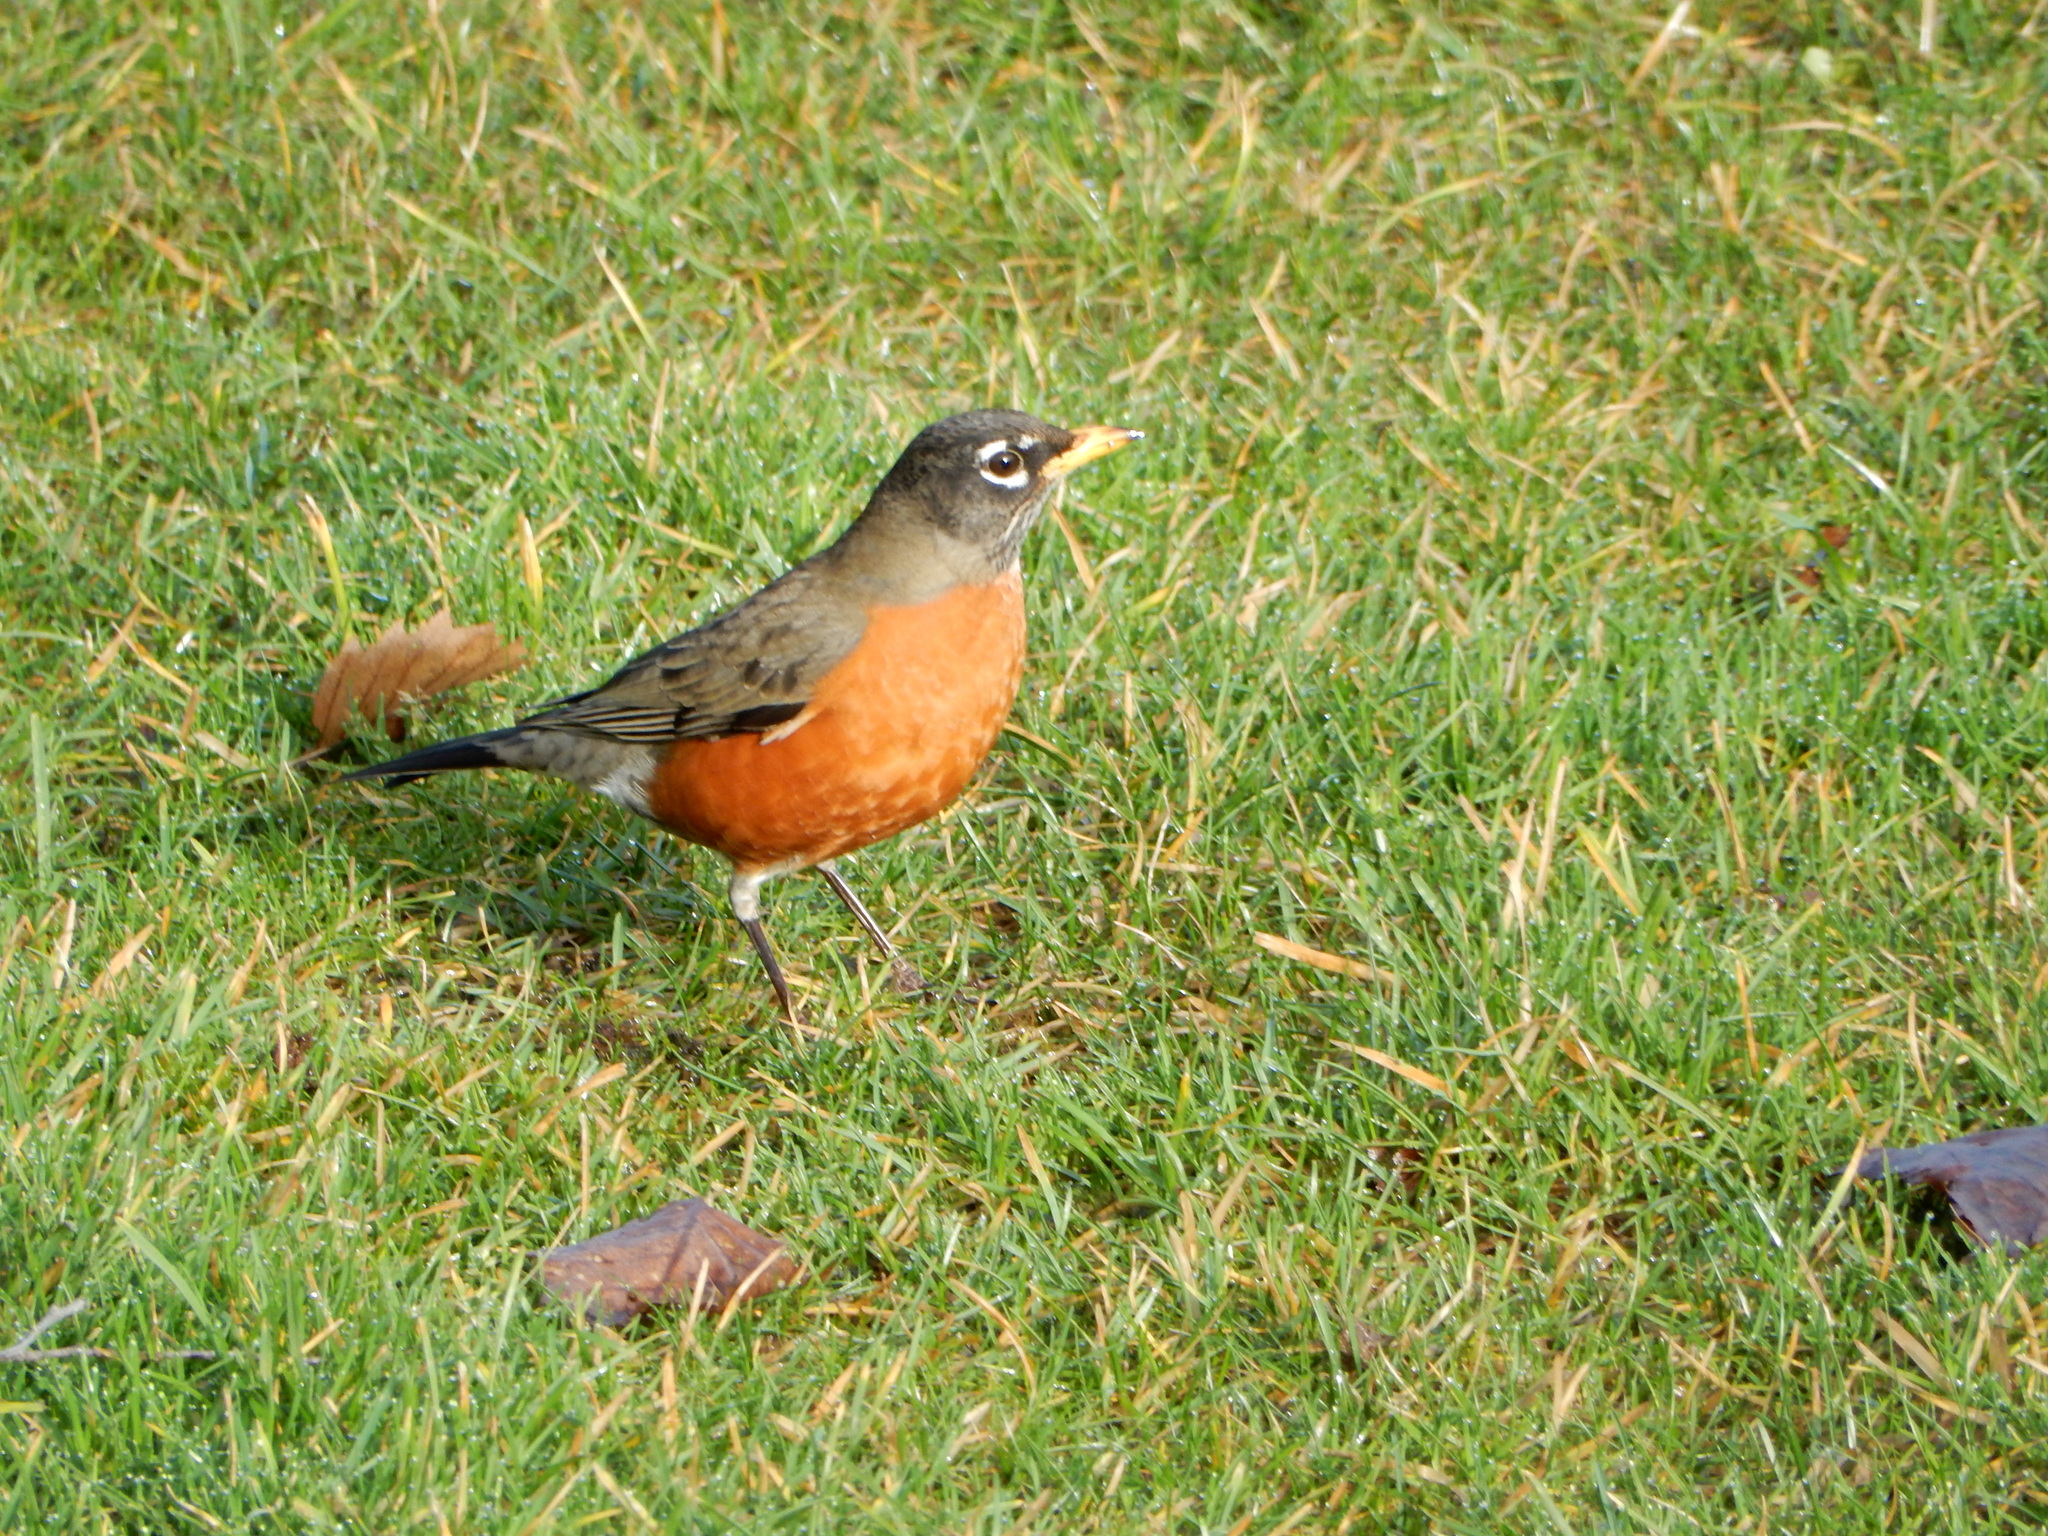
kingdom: Animalia
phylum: Chordata
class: Aves
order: Passeriformes
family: Turdidae
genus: Turdus
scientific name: Turdus migratorius
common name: American robin
